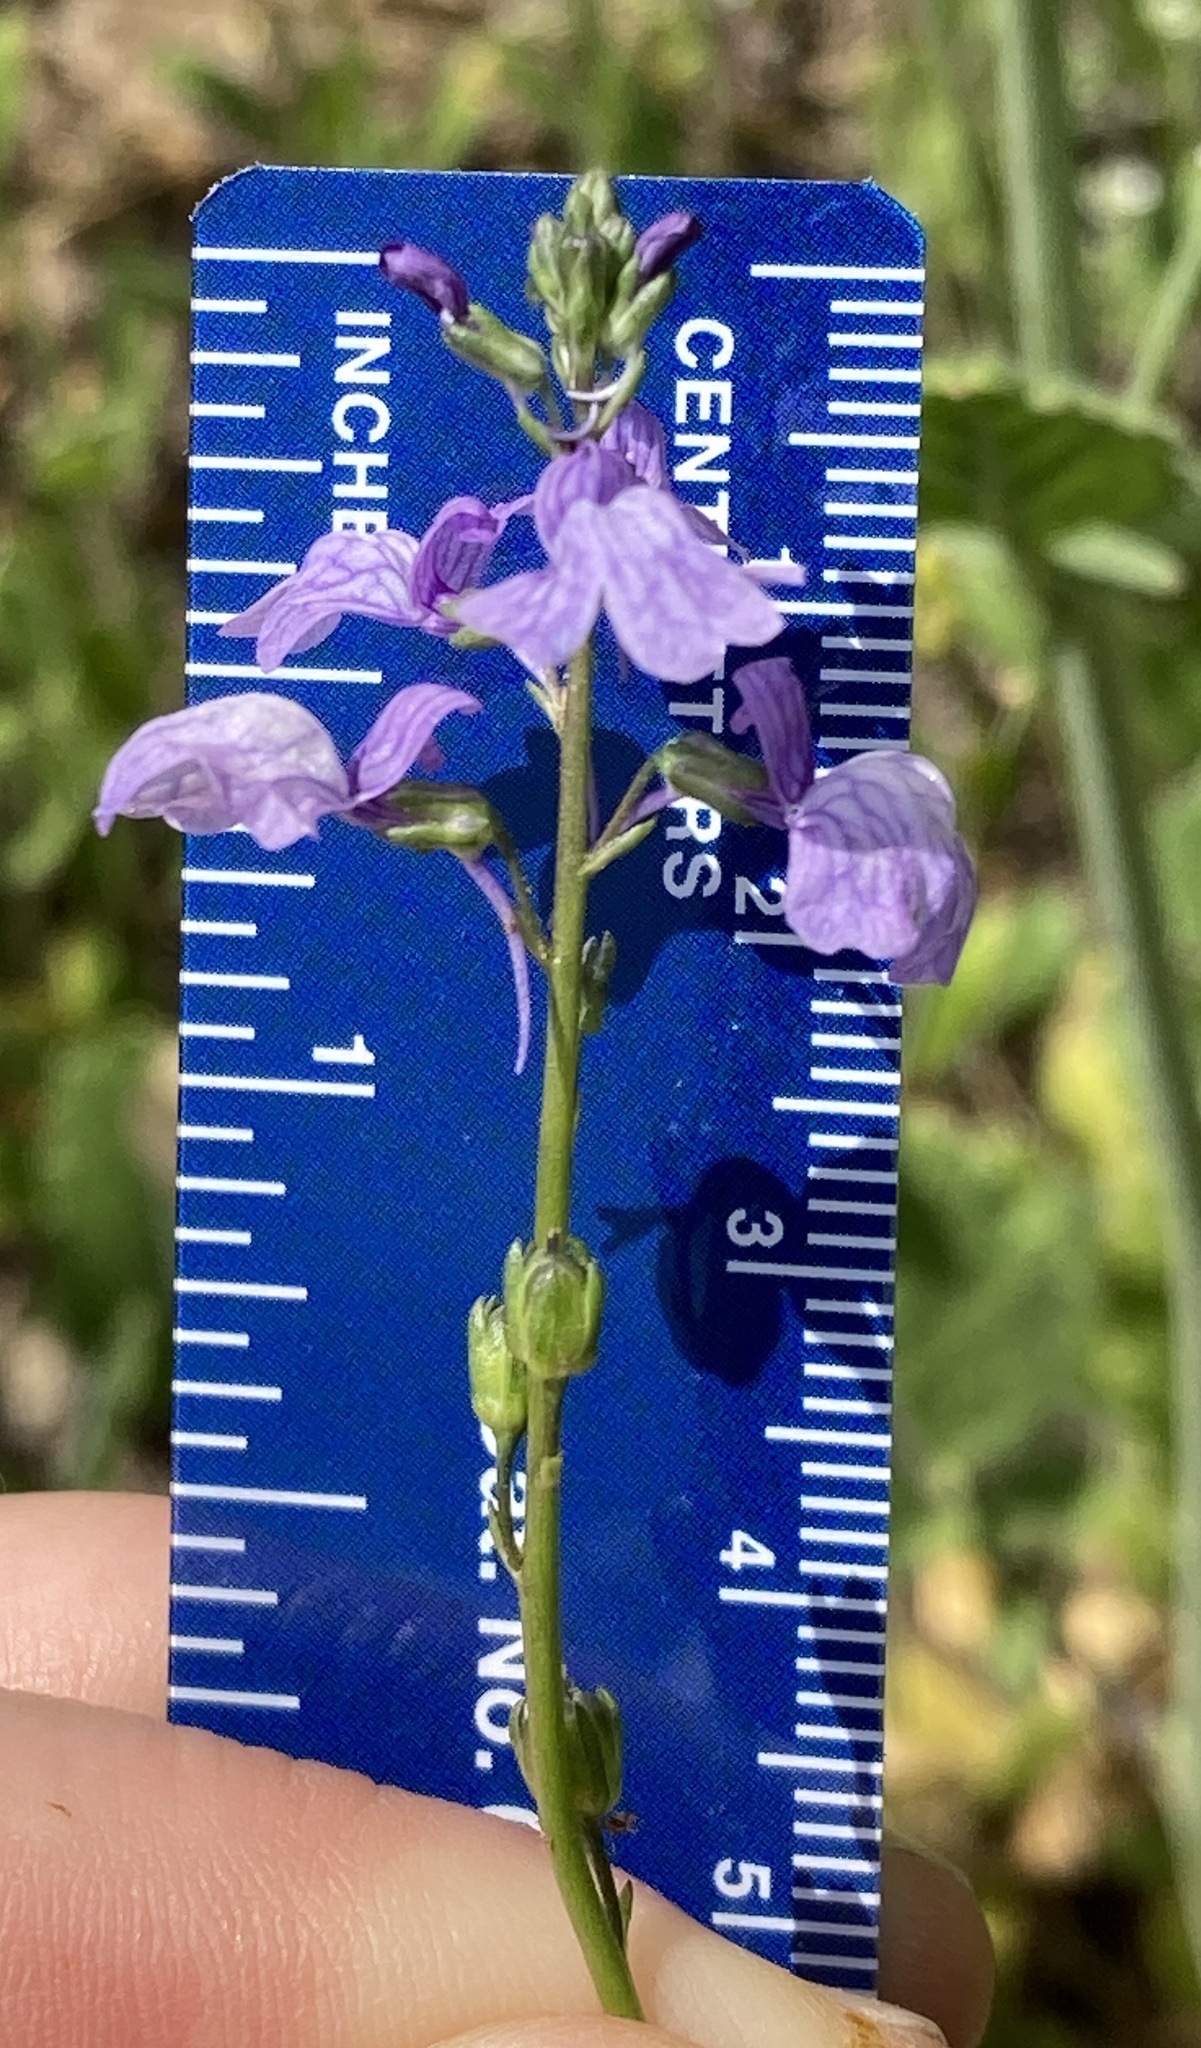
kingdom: Plantae
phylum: Tracheophyta
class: Magnoliopsida
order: Lamiales
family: Plantaginaceae
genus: Nuttallanthus
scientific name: Nuttallanthus texanus
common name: Texas toadflax
